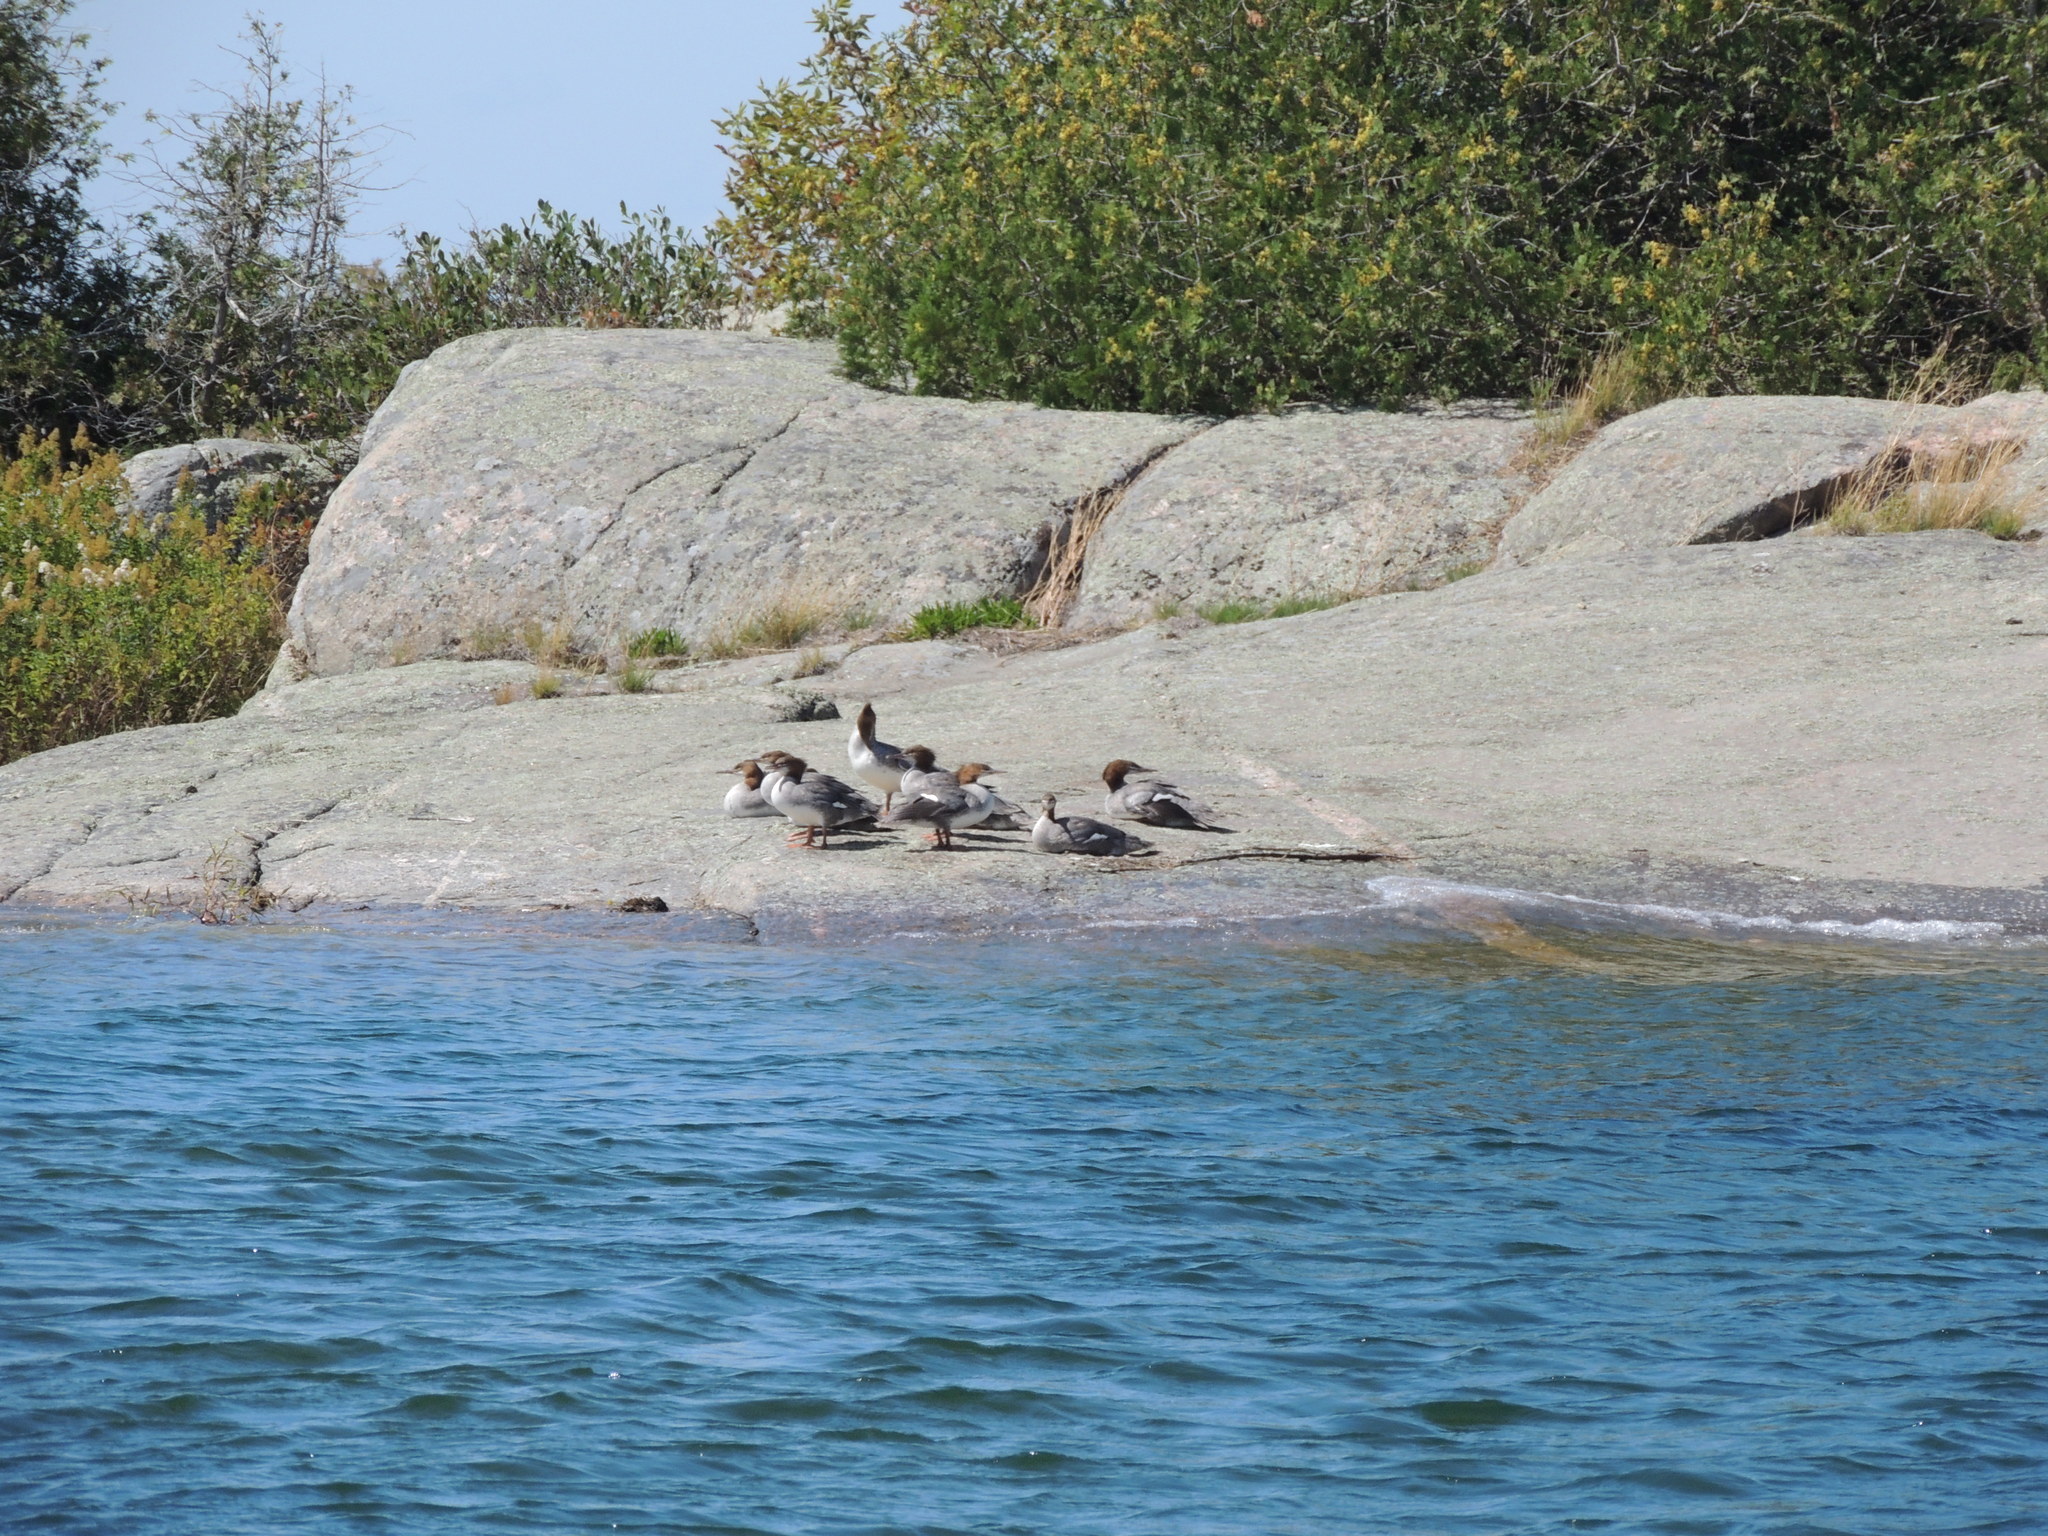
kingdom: Animalia
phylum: Chordata
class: Aves
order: Anseriformes
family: Anatidae
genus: Mergus
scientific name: Mergus merganser
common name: Common merganser
